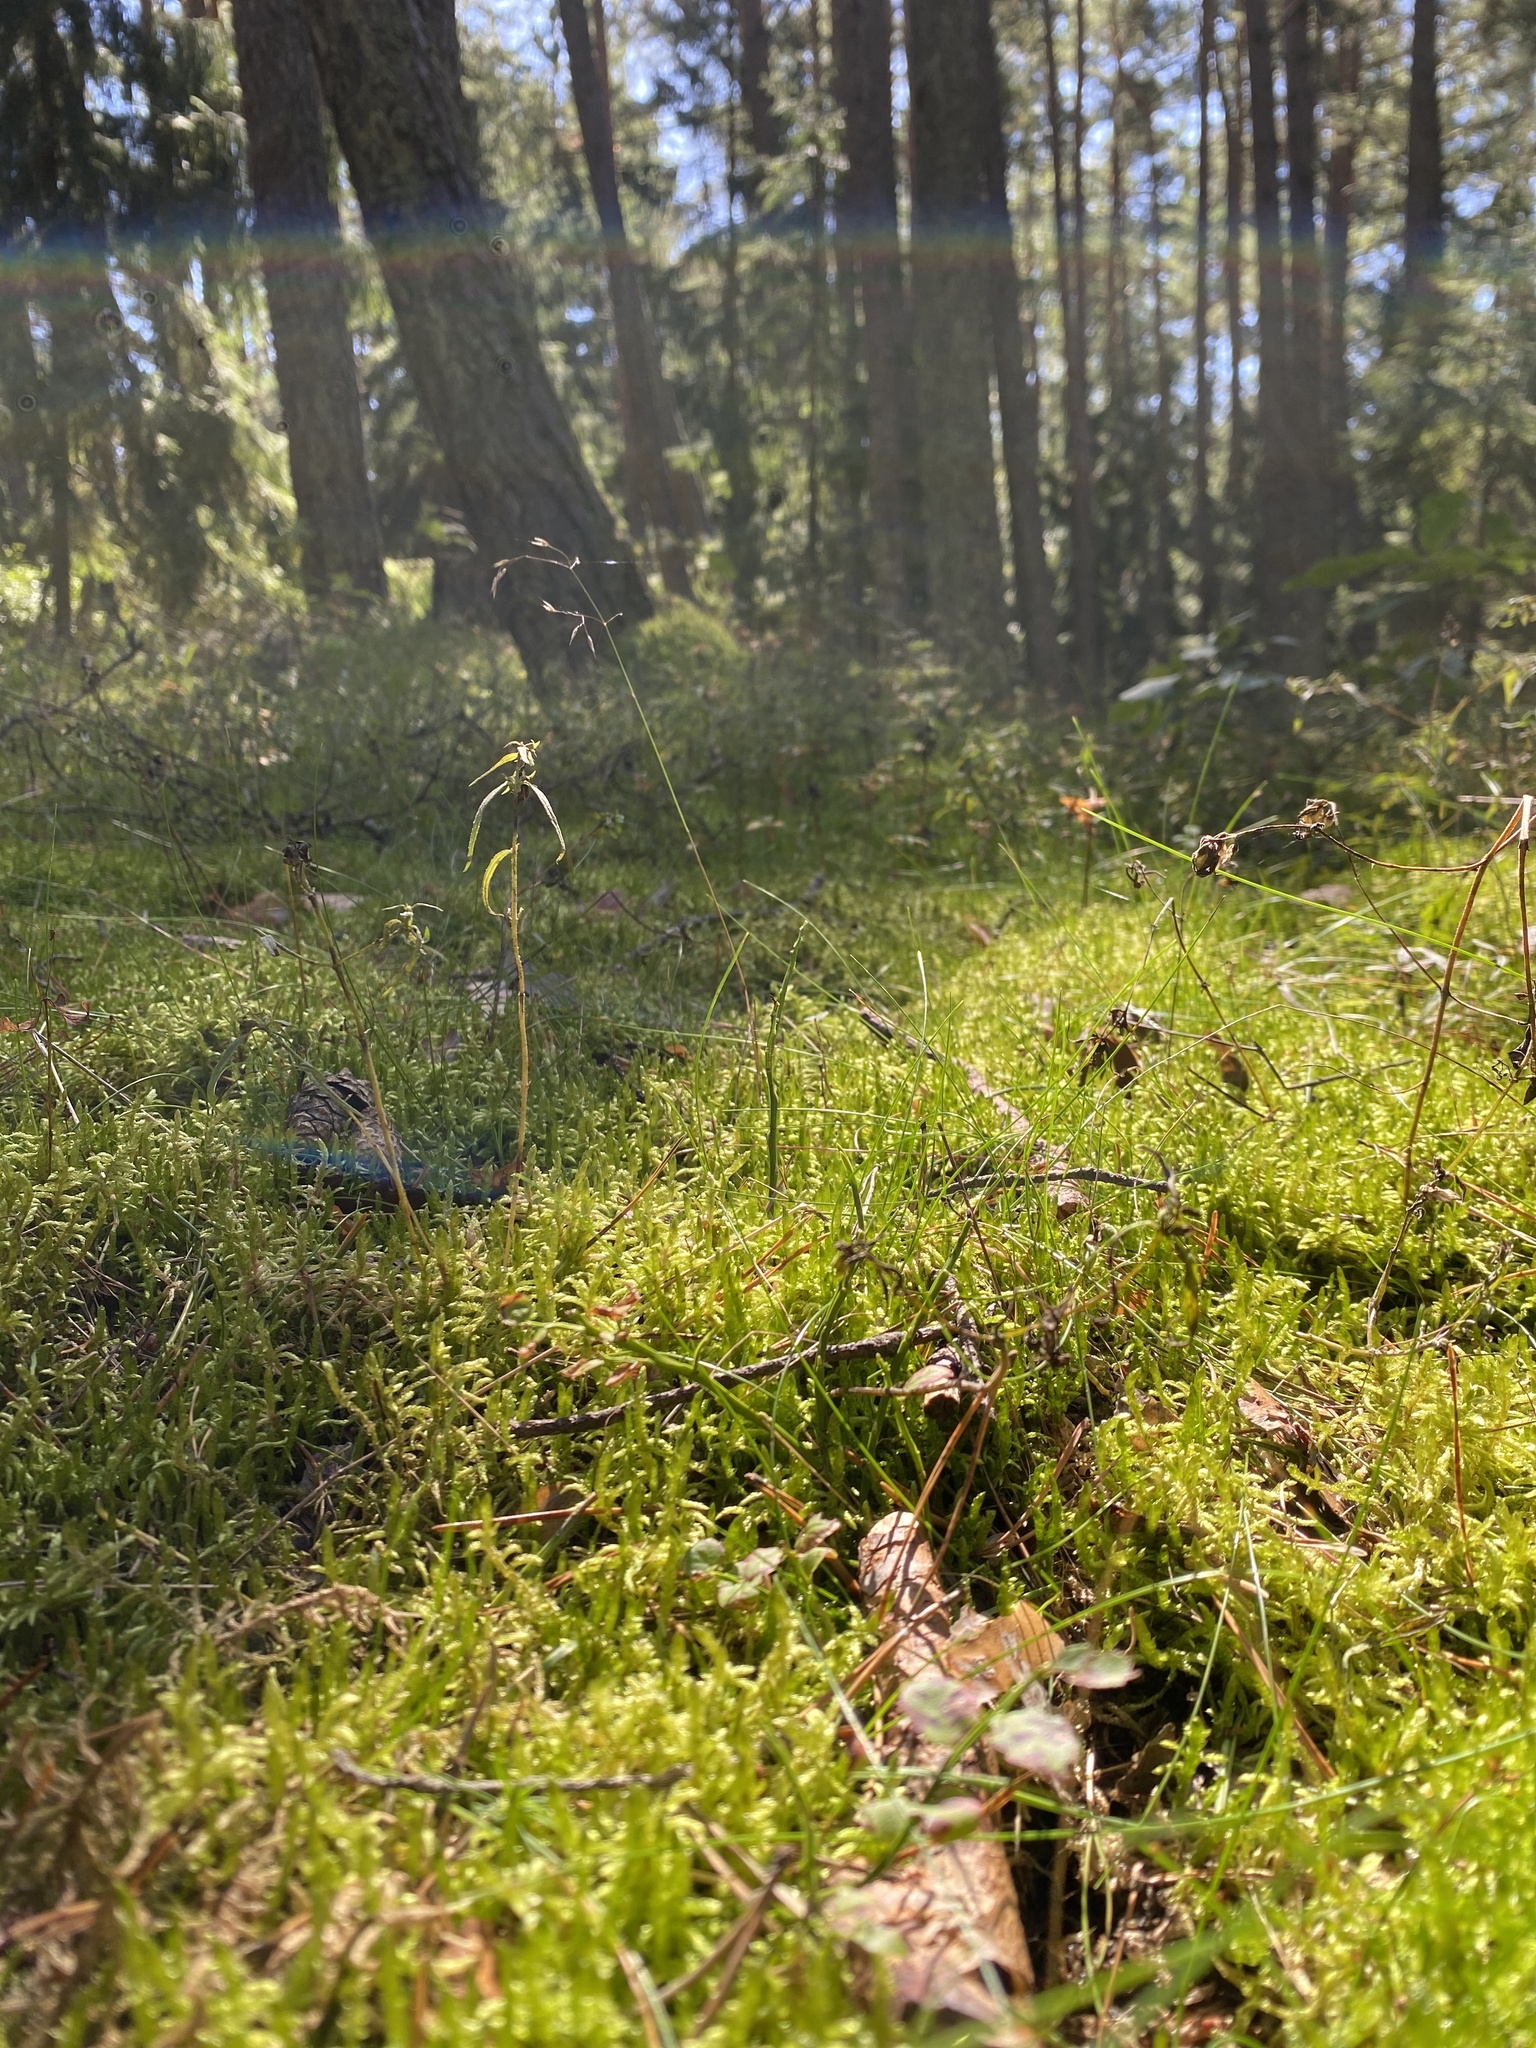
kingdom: Plantae
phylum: Bryophyta
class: Bryopsida
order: Hypnales
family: Brachytheciaceae
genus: Pseudoscleropodium
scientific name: Pseudoscleropodium purum
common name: Neat feather-moss
